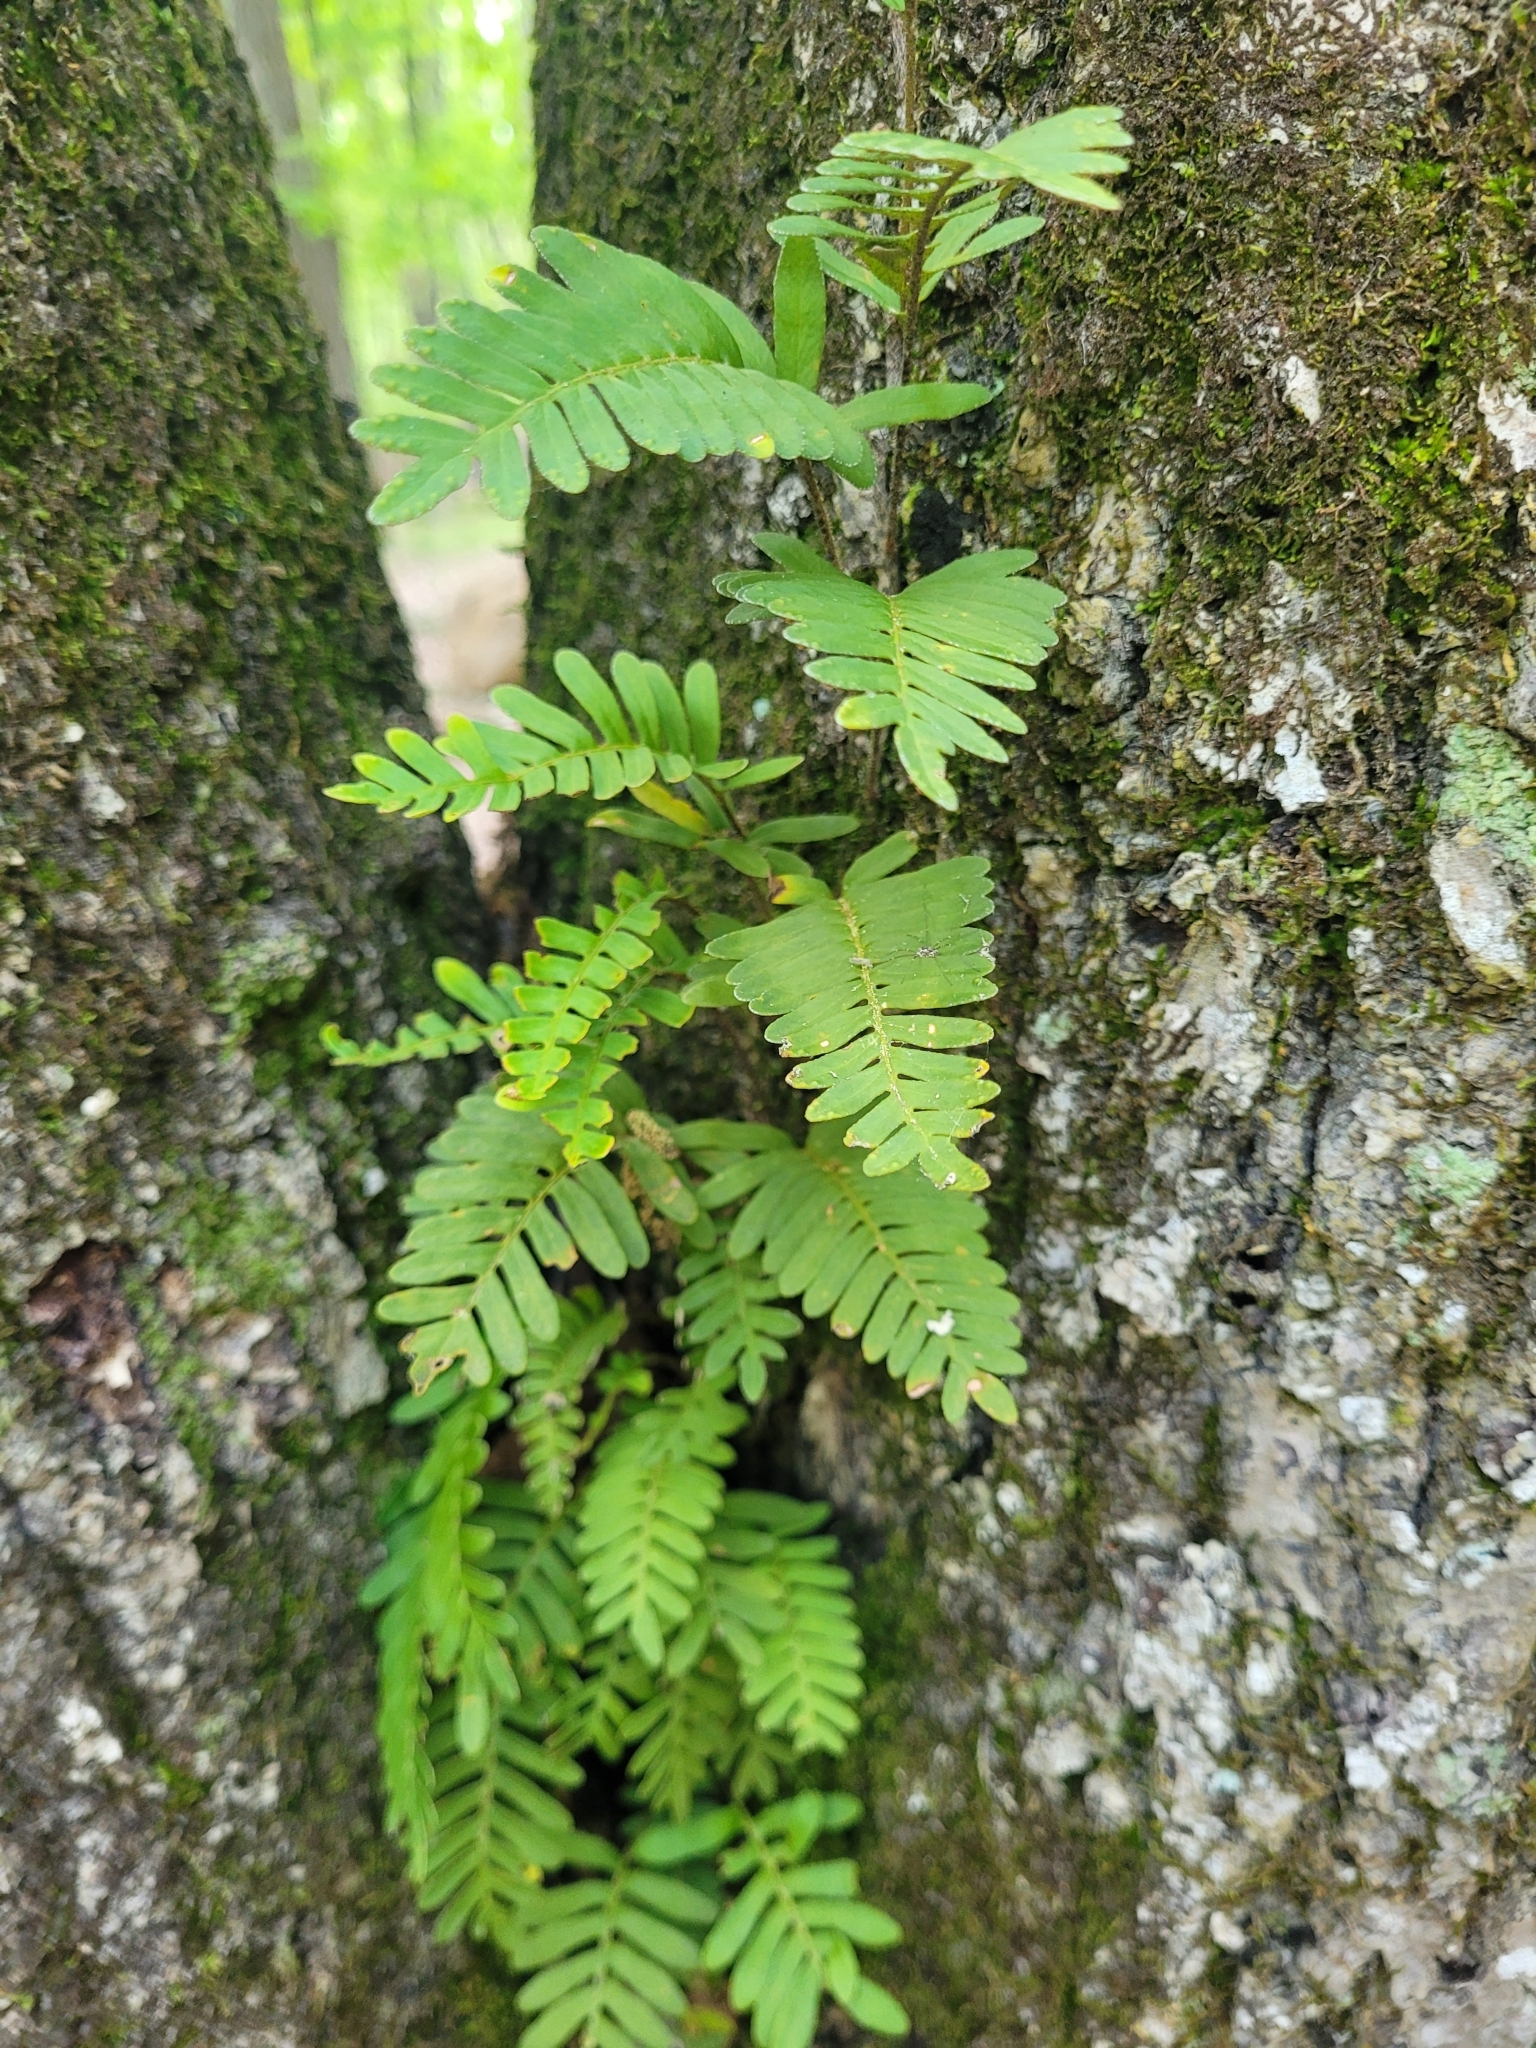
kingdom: Plantae
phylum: Tracheophyta
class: Polypodiopsida
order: Polypodiales
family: Polypodiaceae
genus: Pleopeltis
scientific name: Pleopeltis michauxiana
